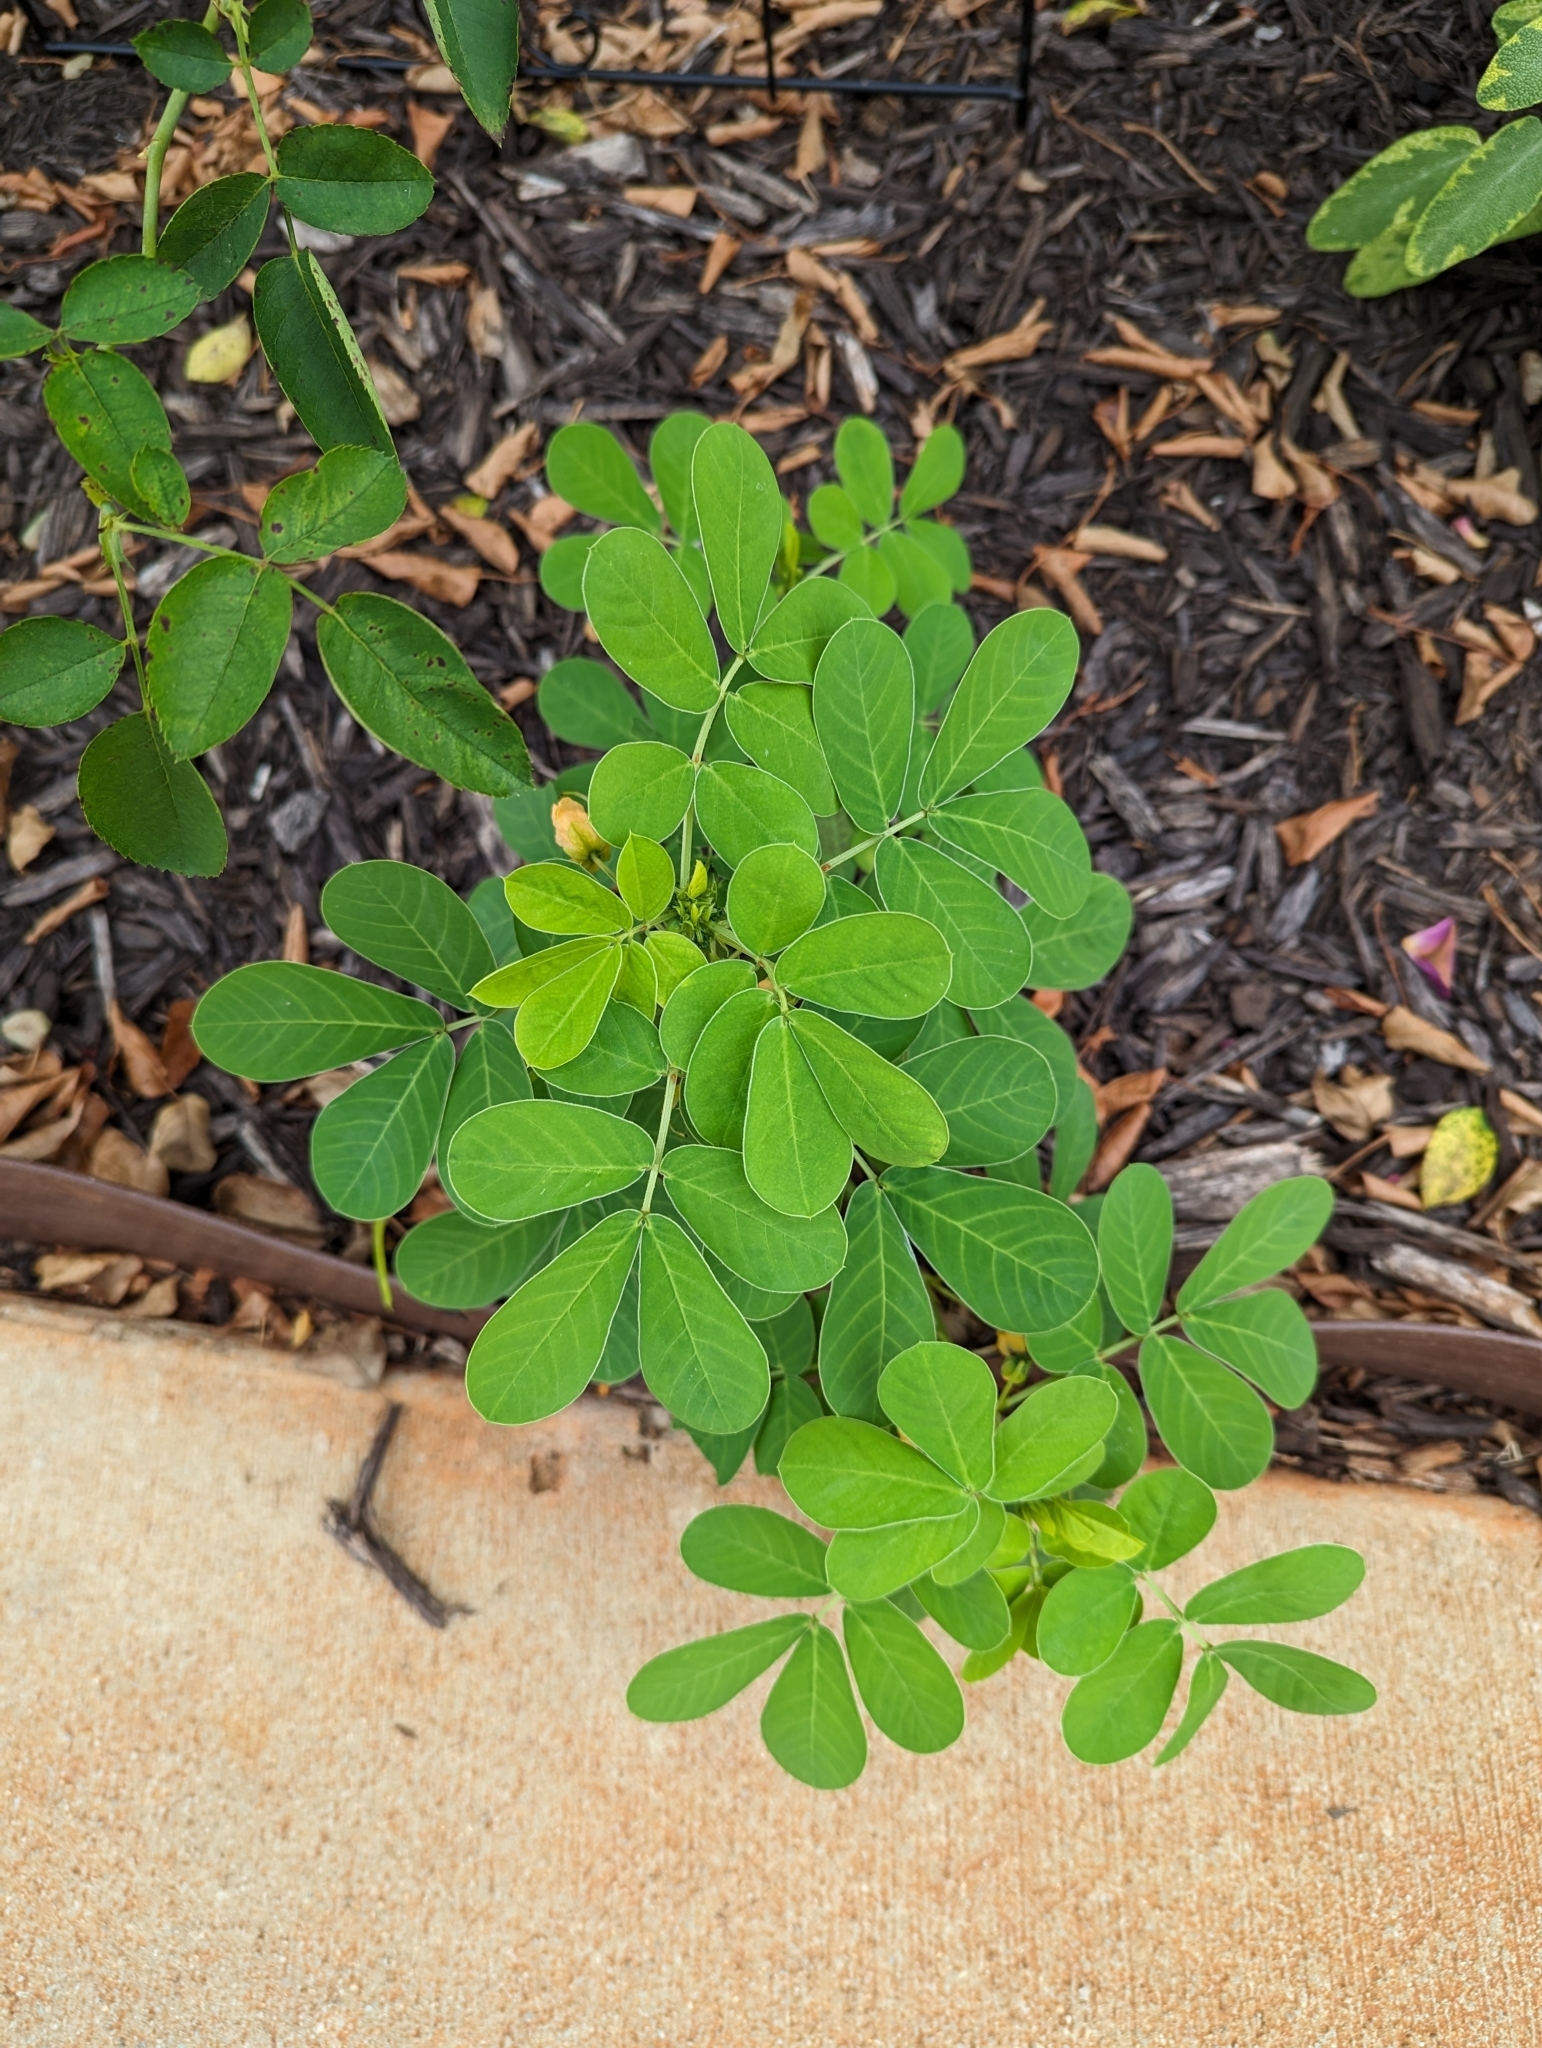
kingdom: Plantae
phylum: Tracheophyta
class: Magnoliopsida
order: Fabales
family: Fabaceae
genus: Senna
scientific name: Senna obtusifolia
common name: Java-bean
